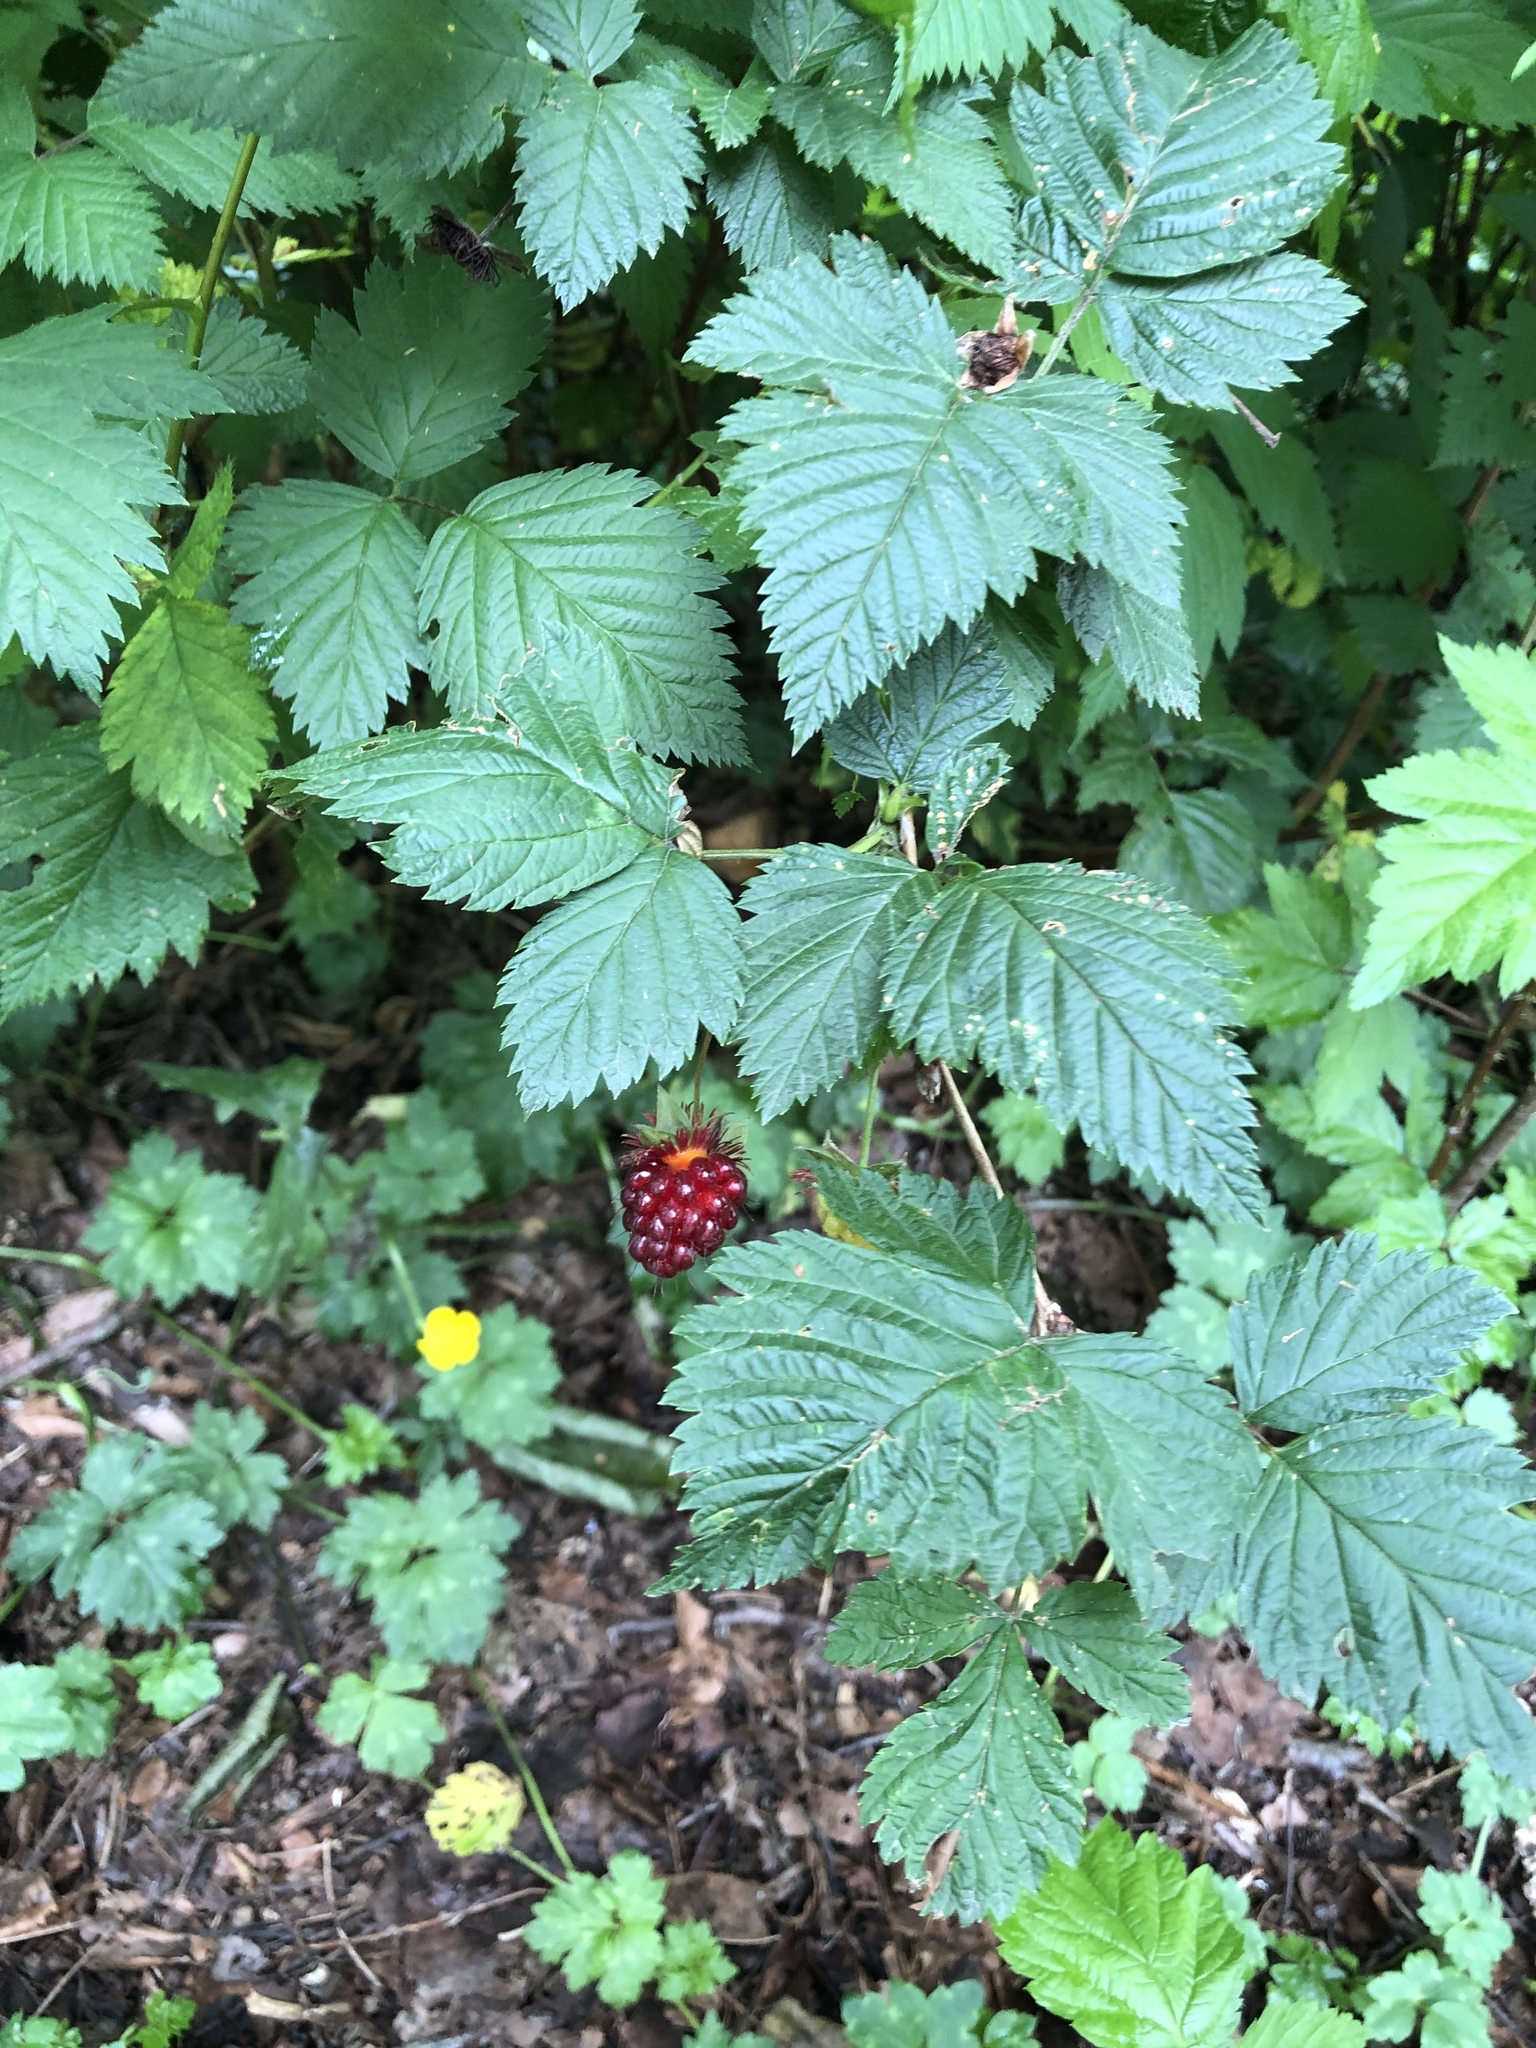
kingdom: Plantae
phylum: Tracheophyta
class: Magnoliopsida
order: Rosales
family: Rosaceae
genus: Rubus
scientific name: Rubus spectabilis
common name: Salmonberry
